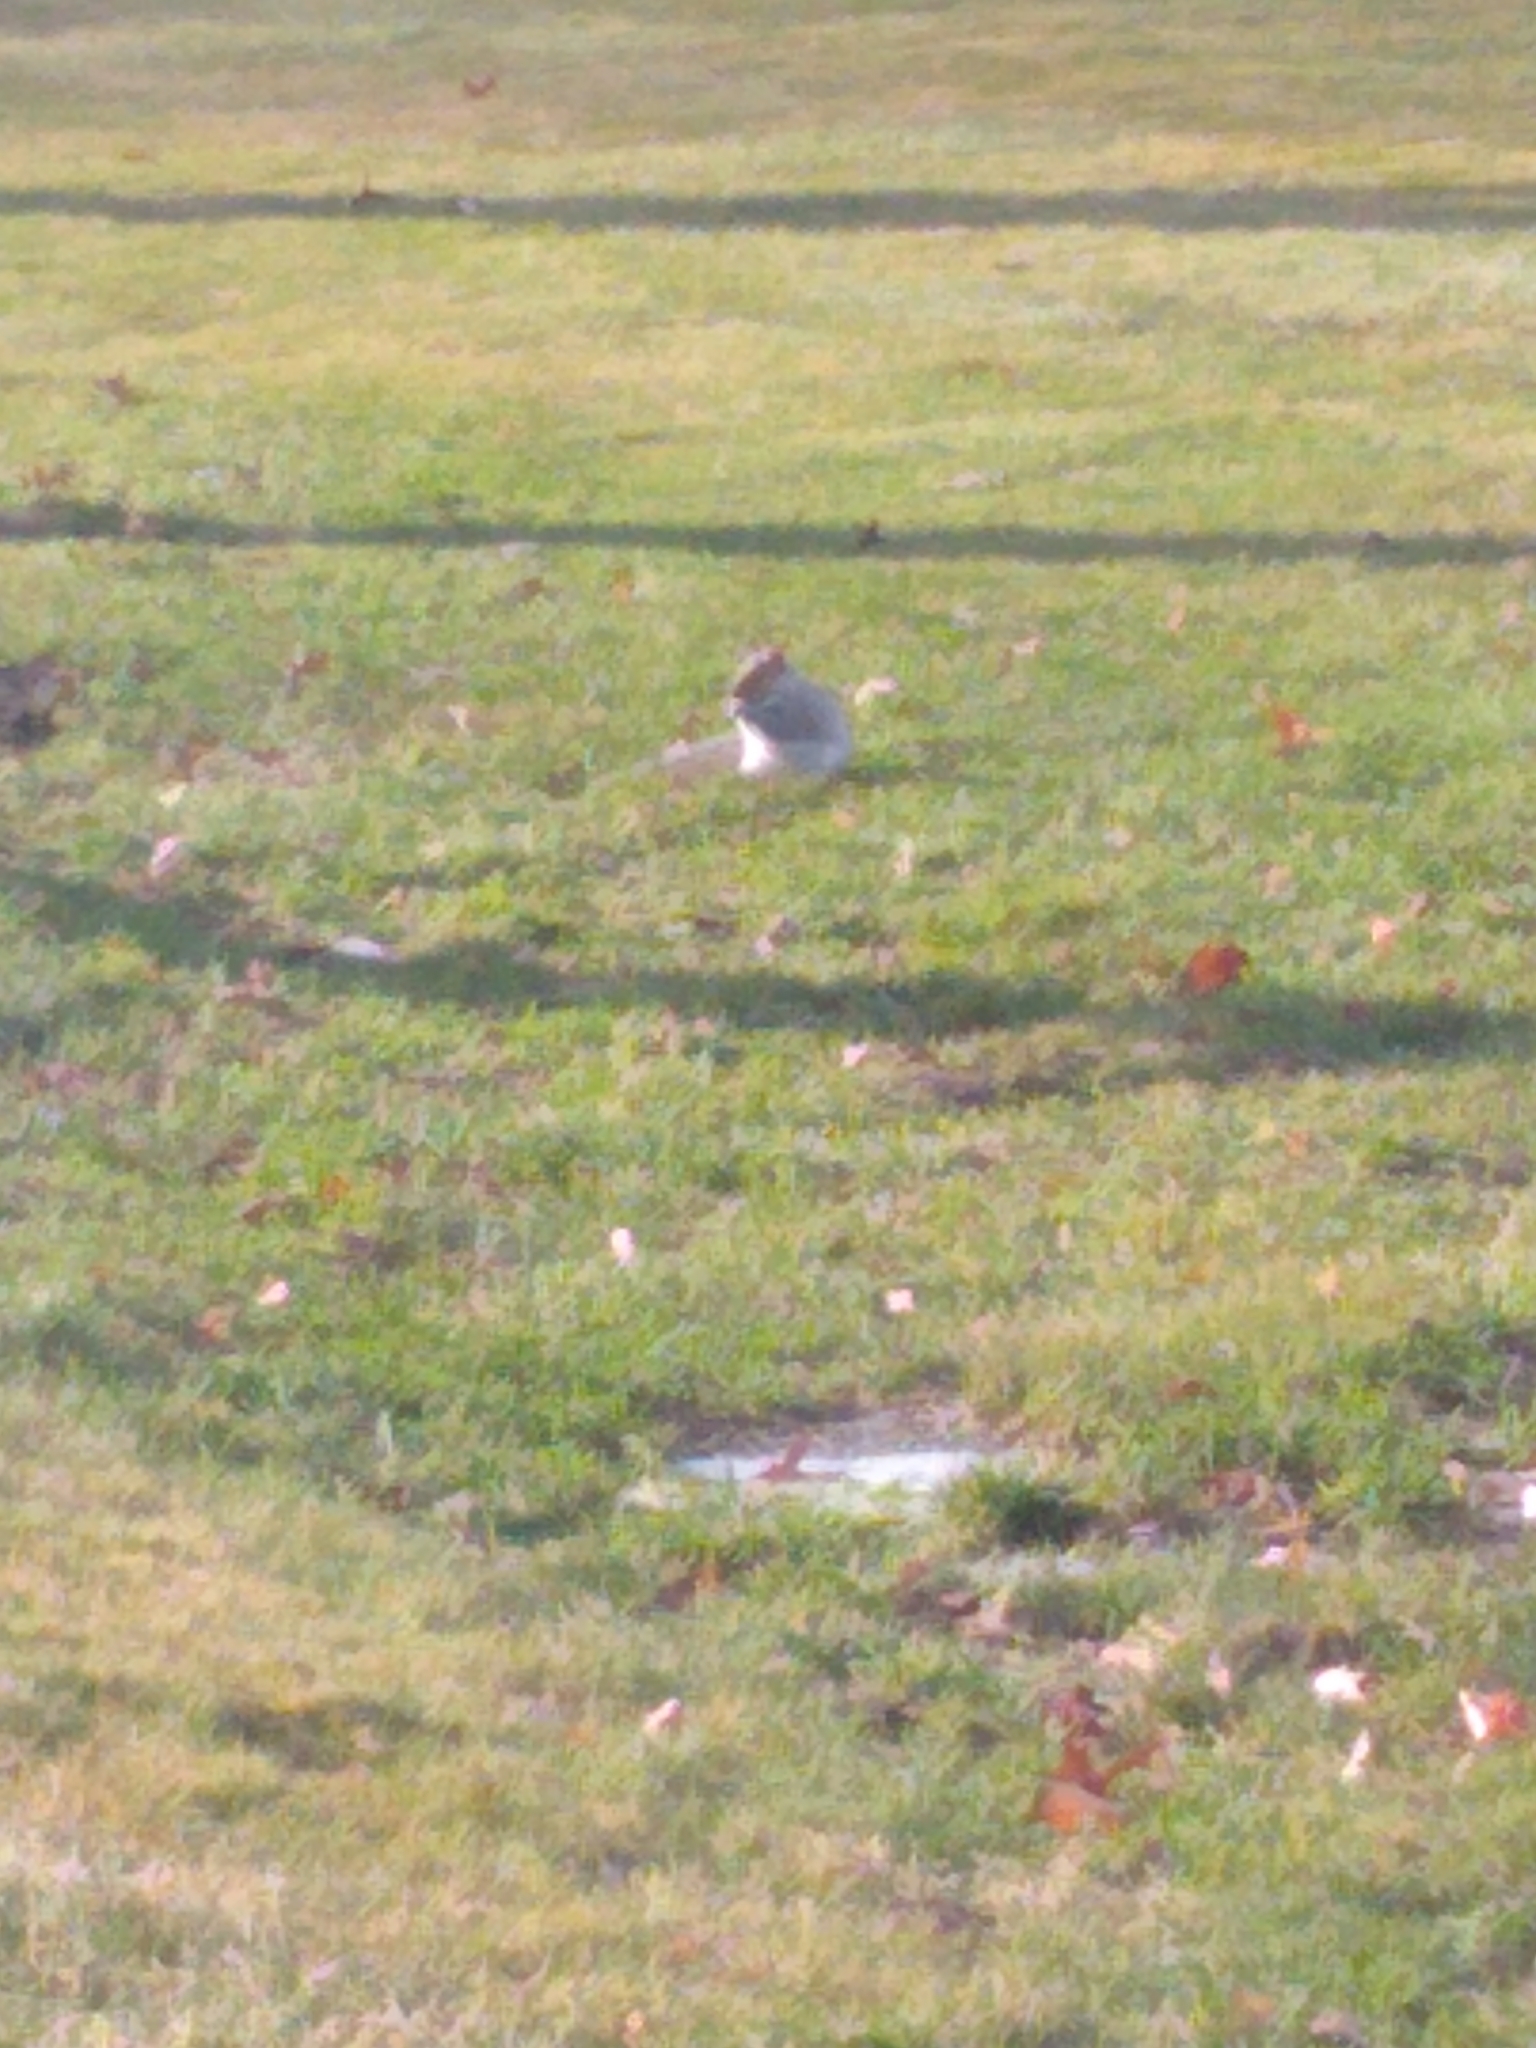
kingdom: Animalia
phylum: Chordata
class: Mammalia
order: Rodentia
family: Sciuridae
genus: Sciurus
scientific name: Sciurus carolinensis
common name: Eastern gray squirrel
